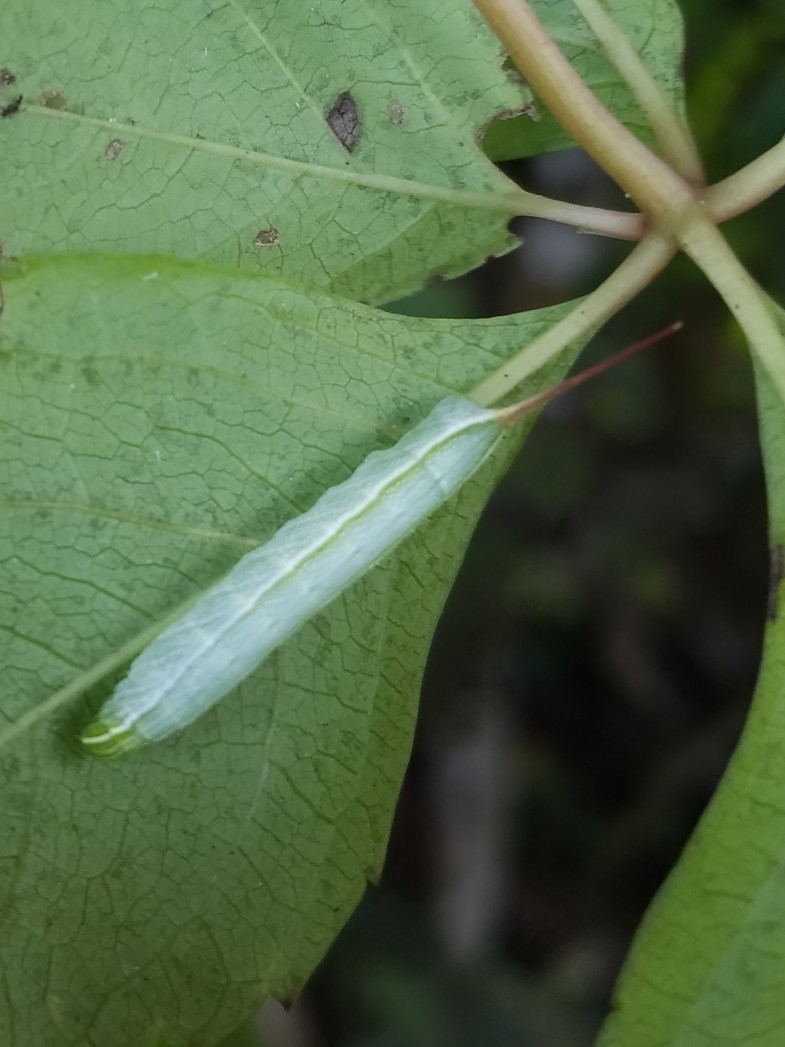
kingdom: Animalia
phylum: Arthropoda
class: Insecta
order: Lepidoptera
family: Sphingidae
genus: Enyo
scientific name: Enyo lugubris
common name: Mournful sphinx
